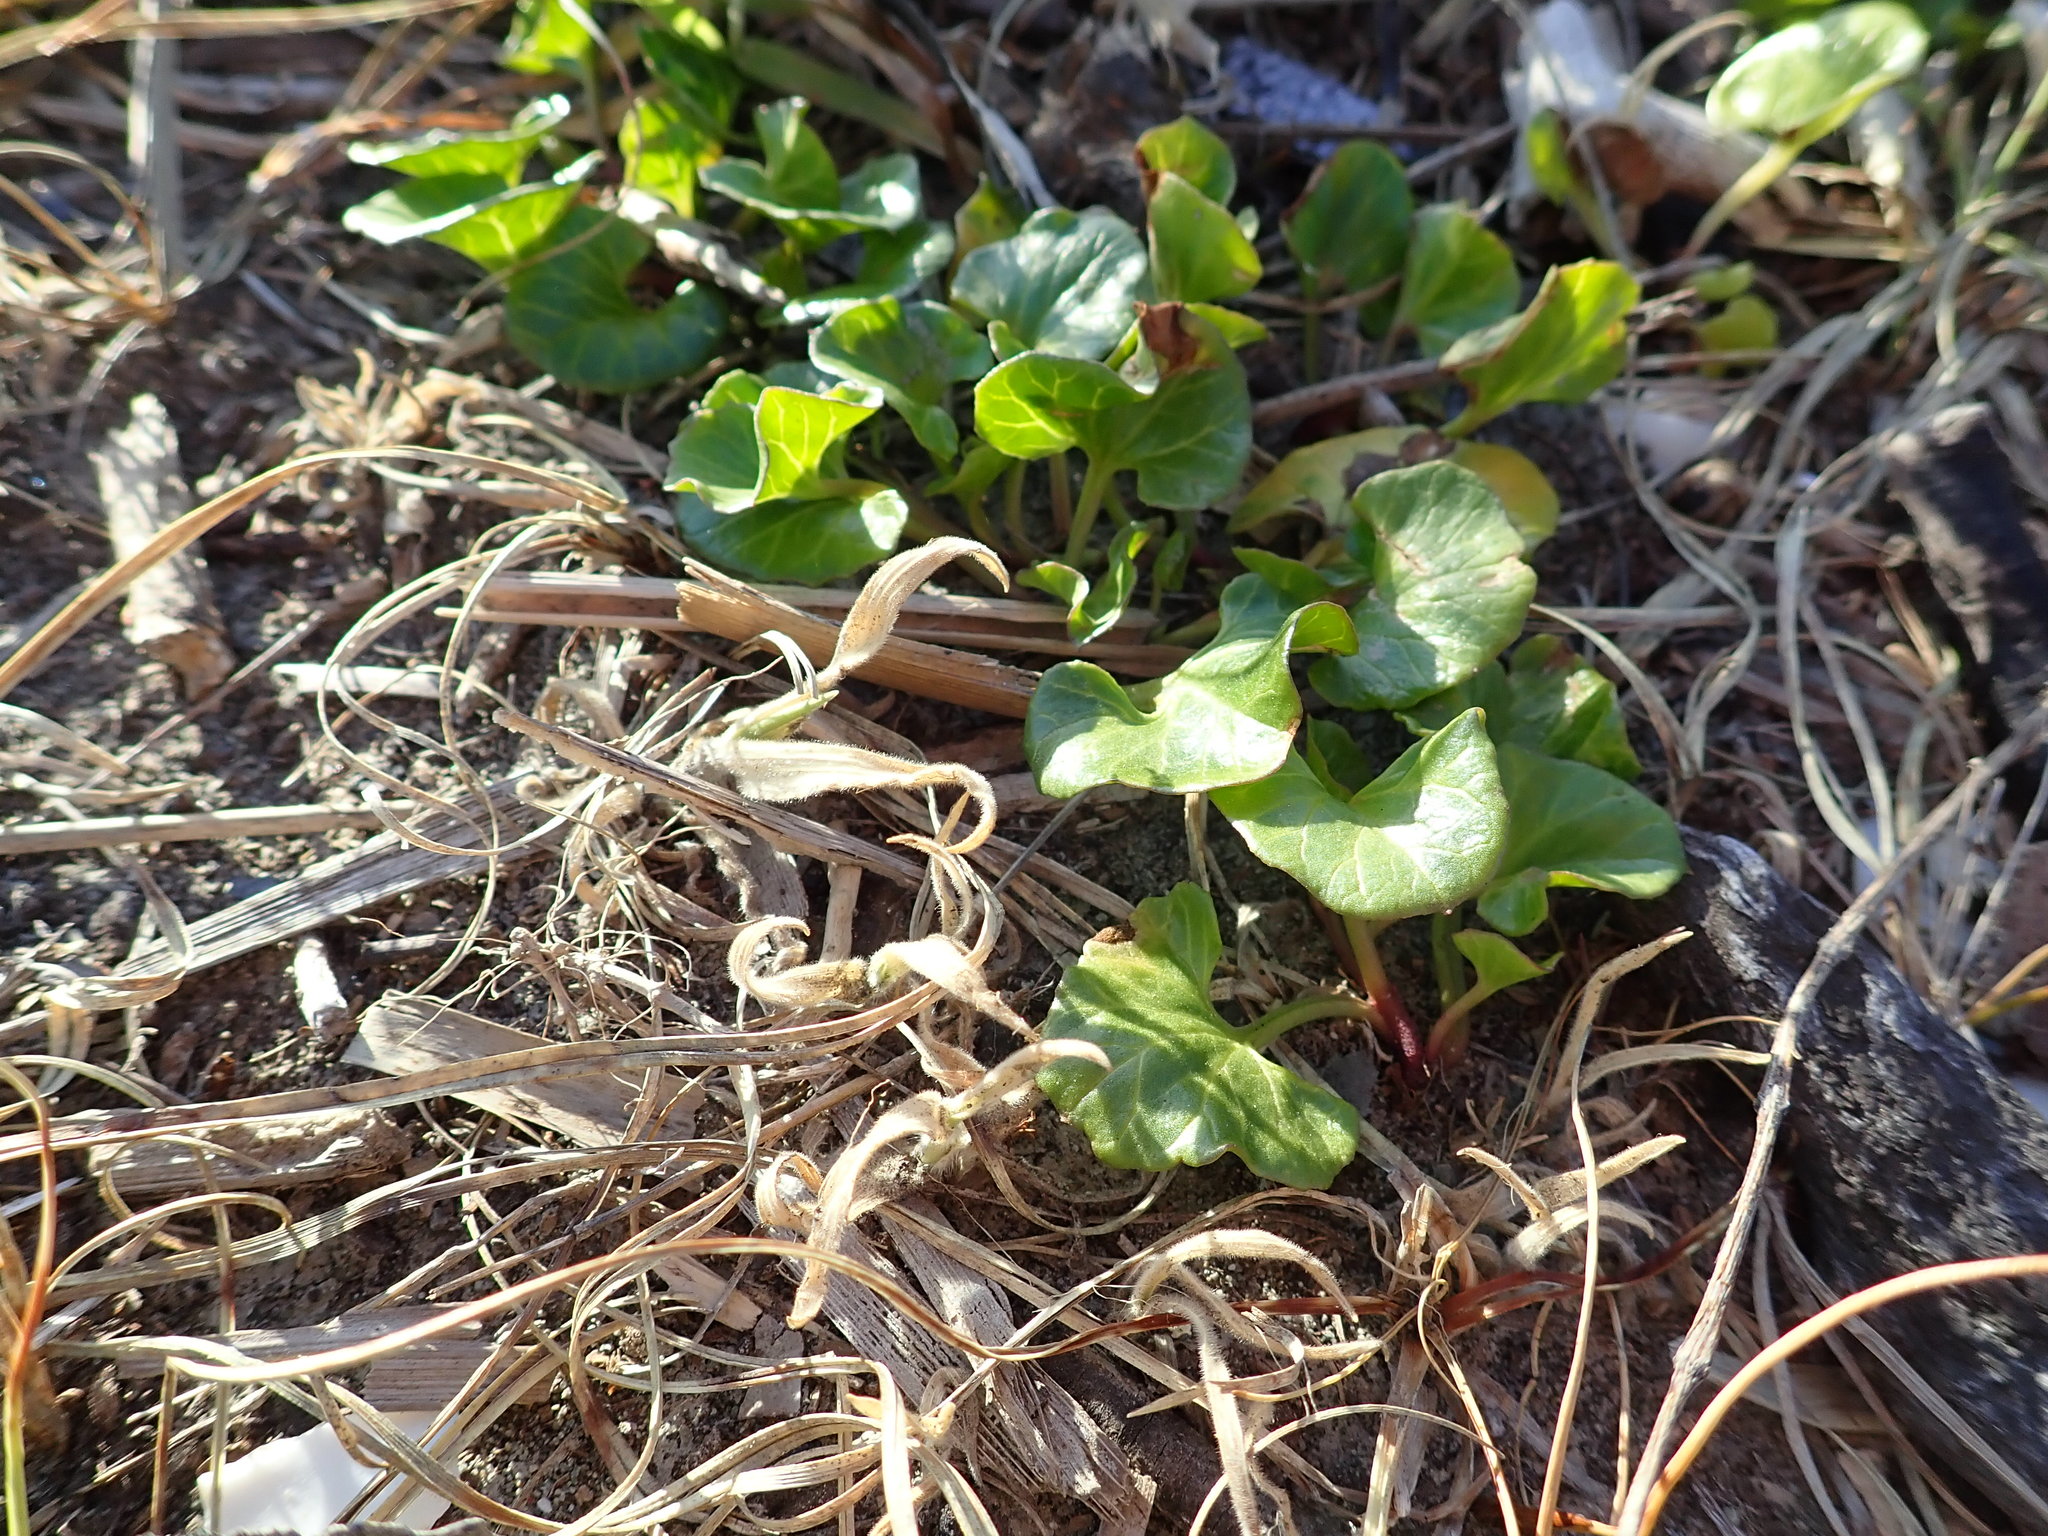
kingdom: Plantae
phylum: Tracheophyta
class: Magnoliopsida
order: Solanales
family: Convolvulaceae
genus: Calystegia
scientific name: Calystegia soldanella
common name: Sea bindweed
